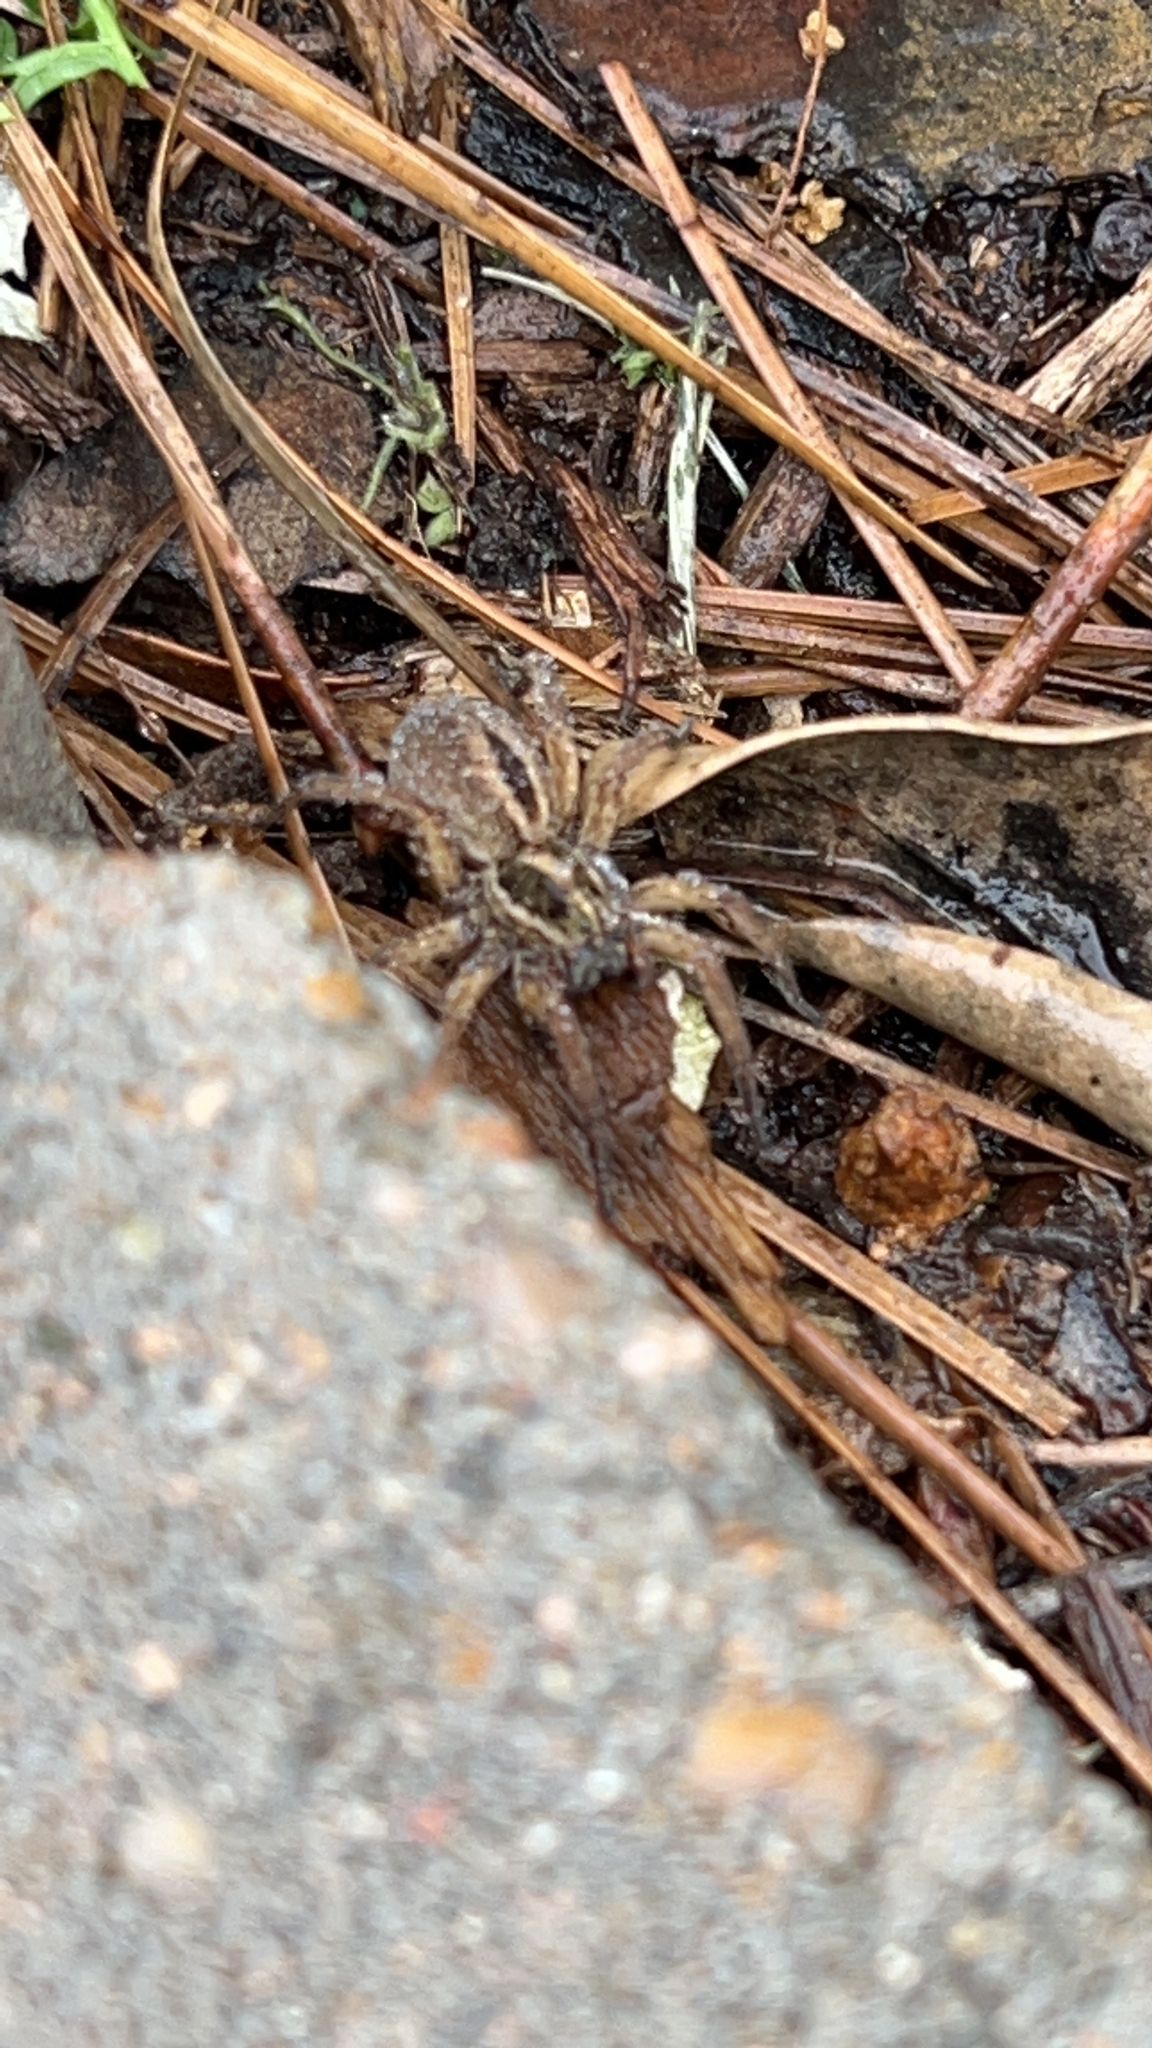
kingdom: Animalia
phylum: Arthropoda
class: Arachnida
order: Araneae
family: Lycosidae
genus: Tigrosa
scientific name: Tigrosa annexa
